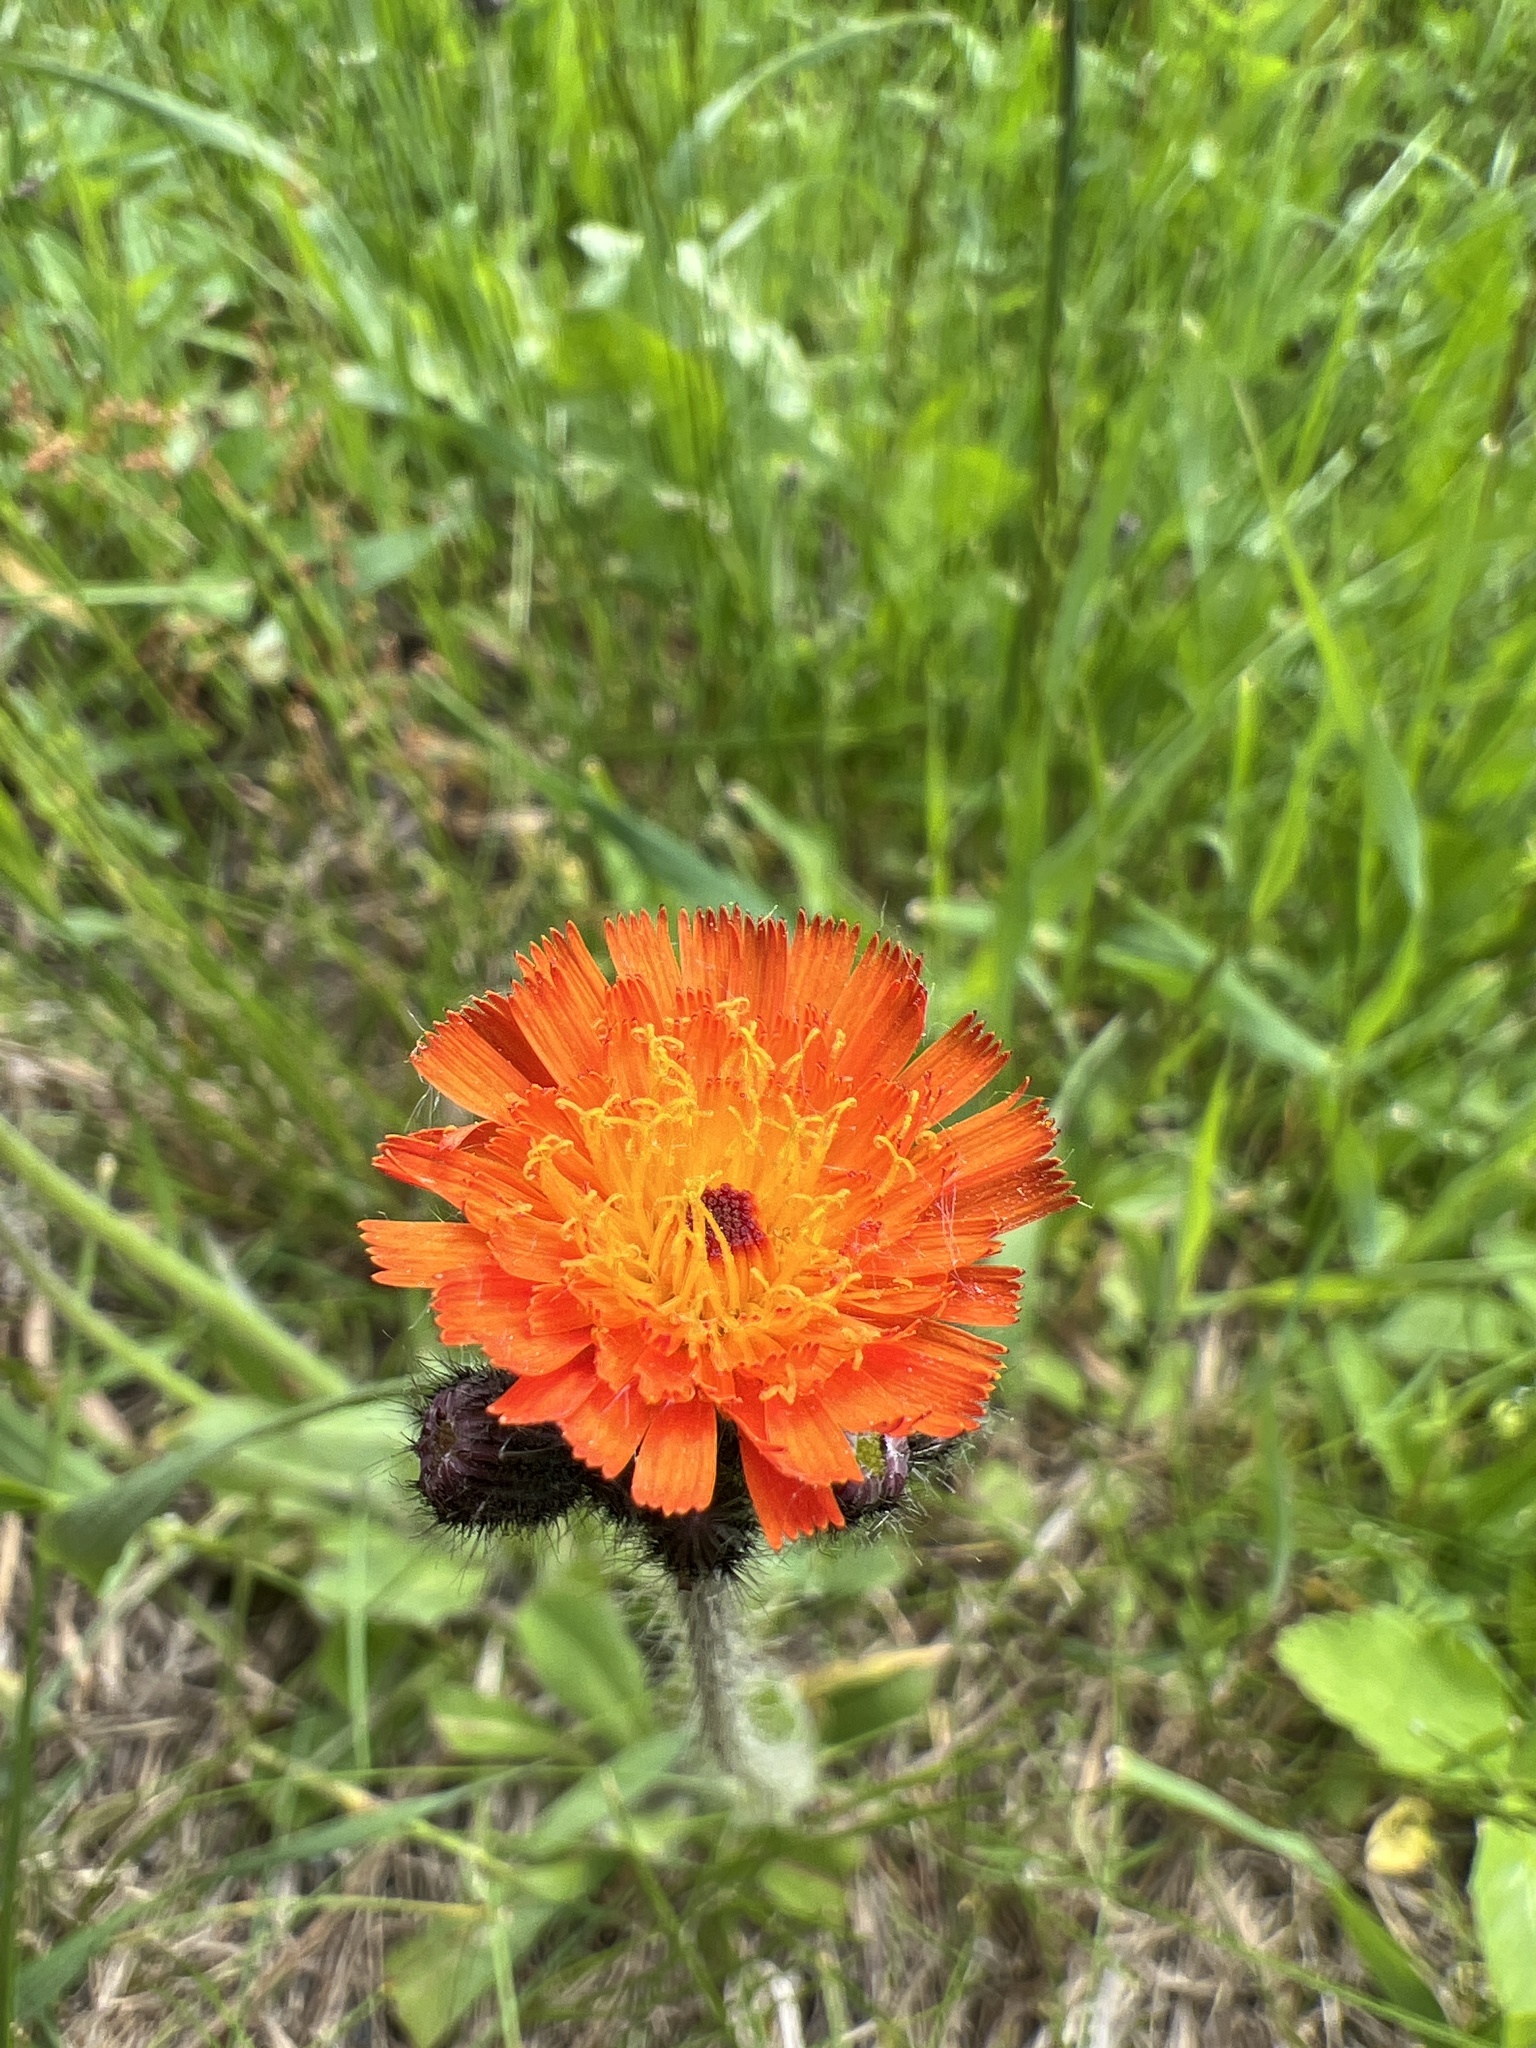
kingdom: Plantae
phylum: Tracheophyta
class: Magnoliopsida
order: Asterales
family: Asteraceae
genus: Pilosella
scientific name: Pilosella aurantiaca
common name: Fox-and-cubs
